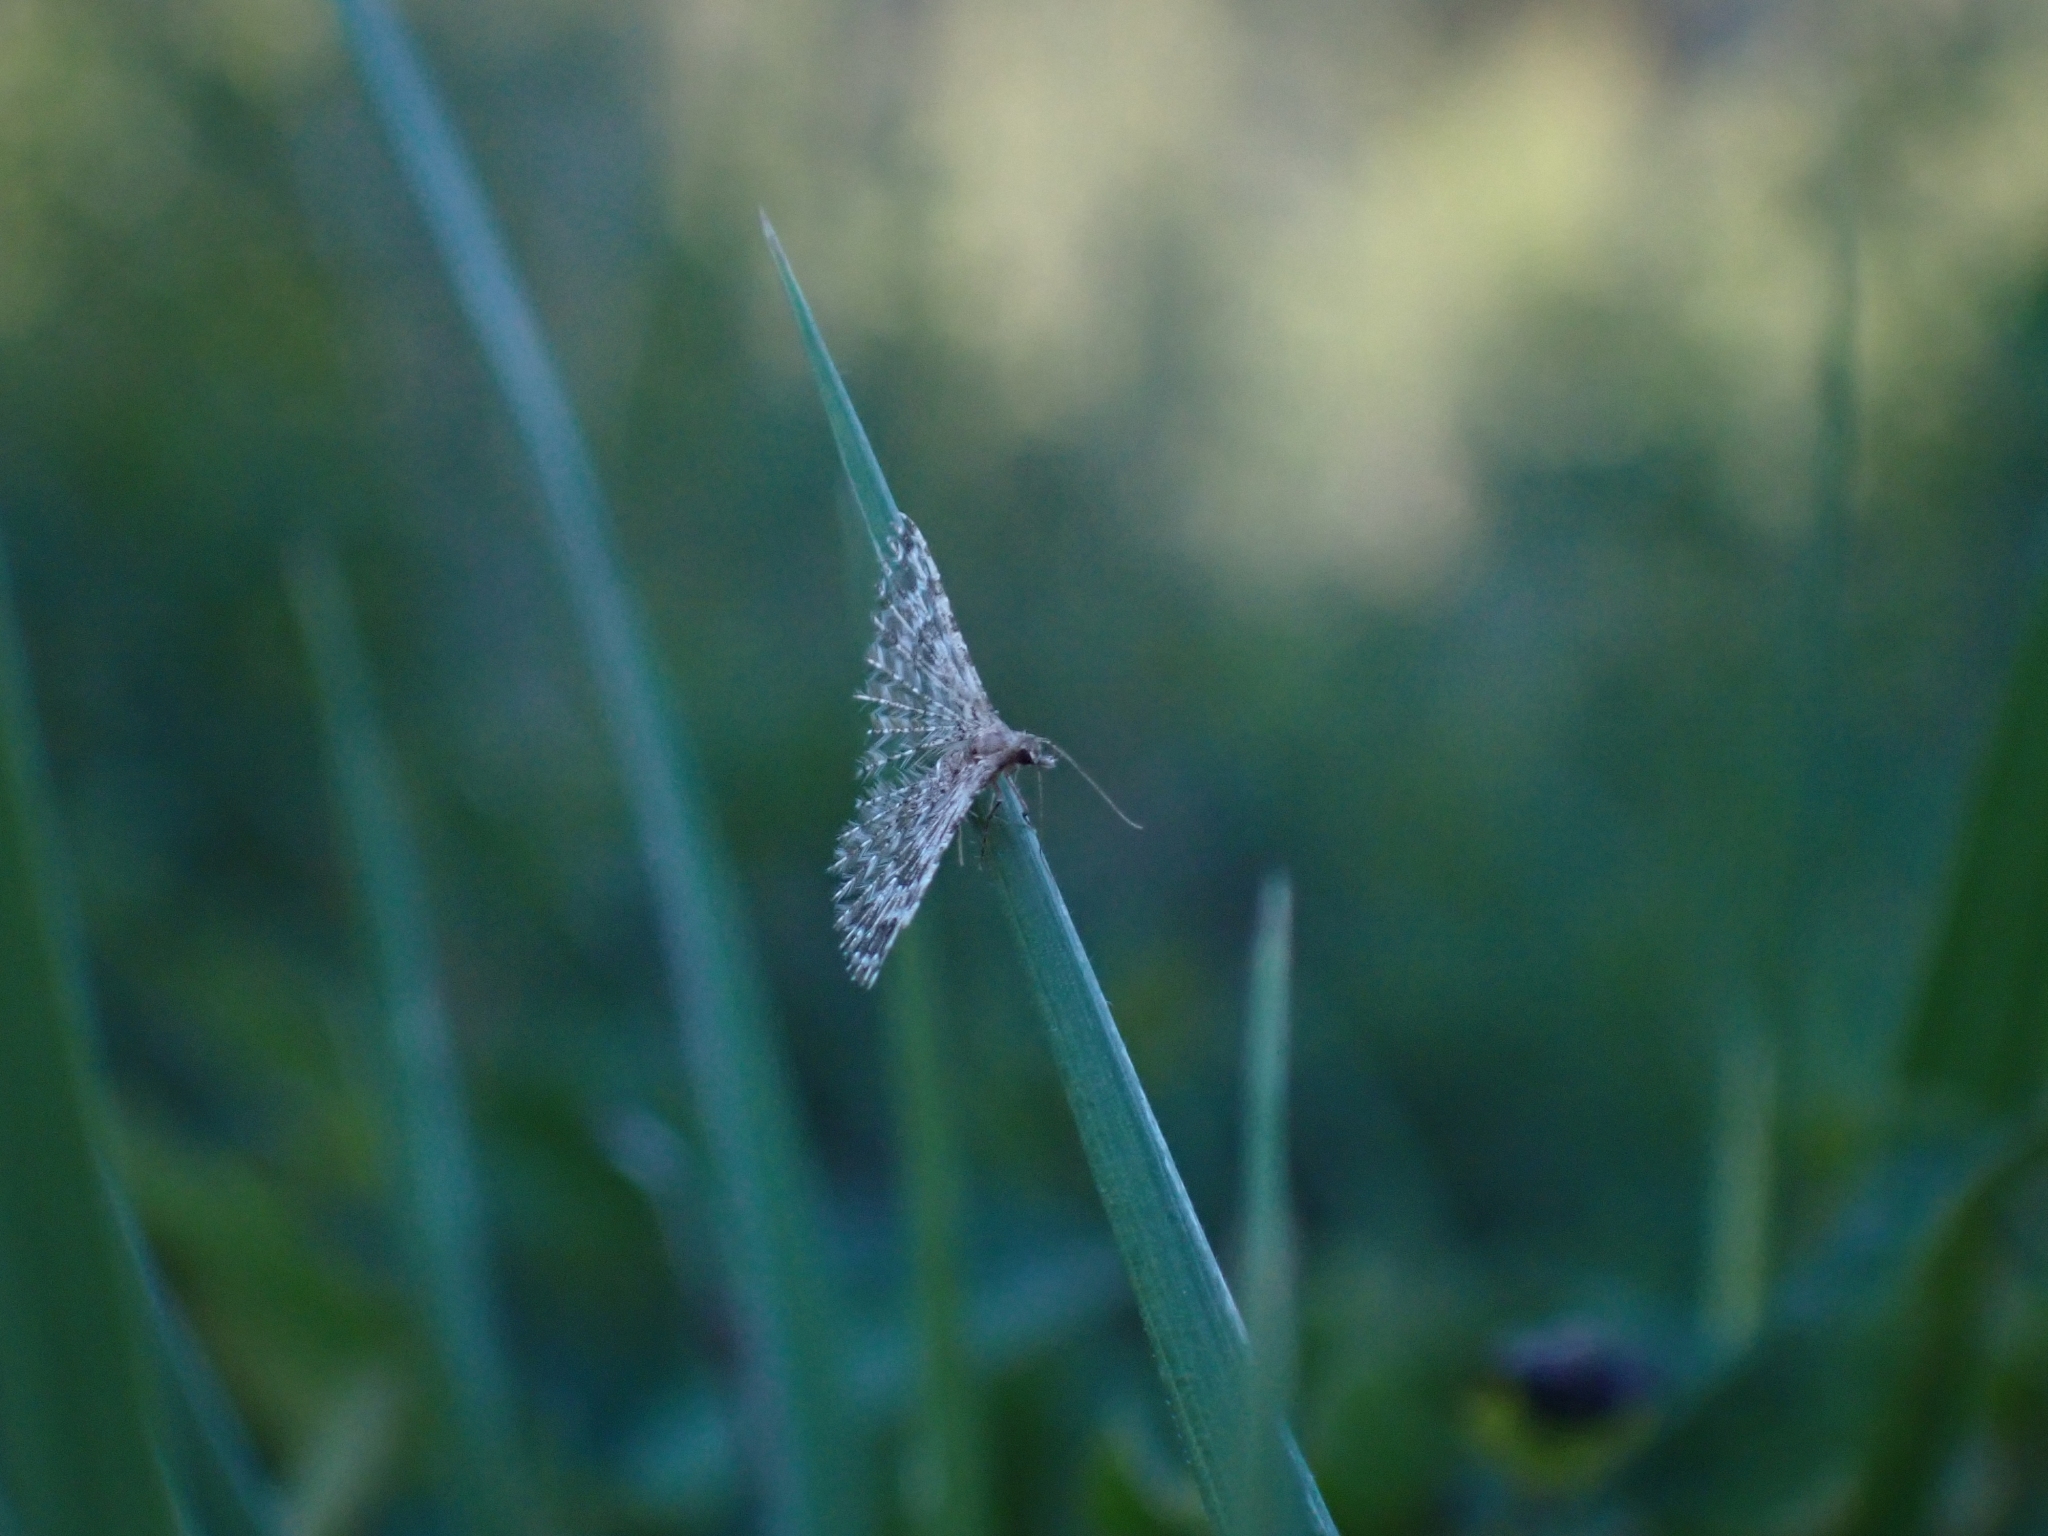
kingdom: Animalia
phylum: Arthropoda
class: Insecta
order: Lepidoptera
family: Alucitidae
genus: Alucita
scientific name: Alucita montana
